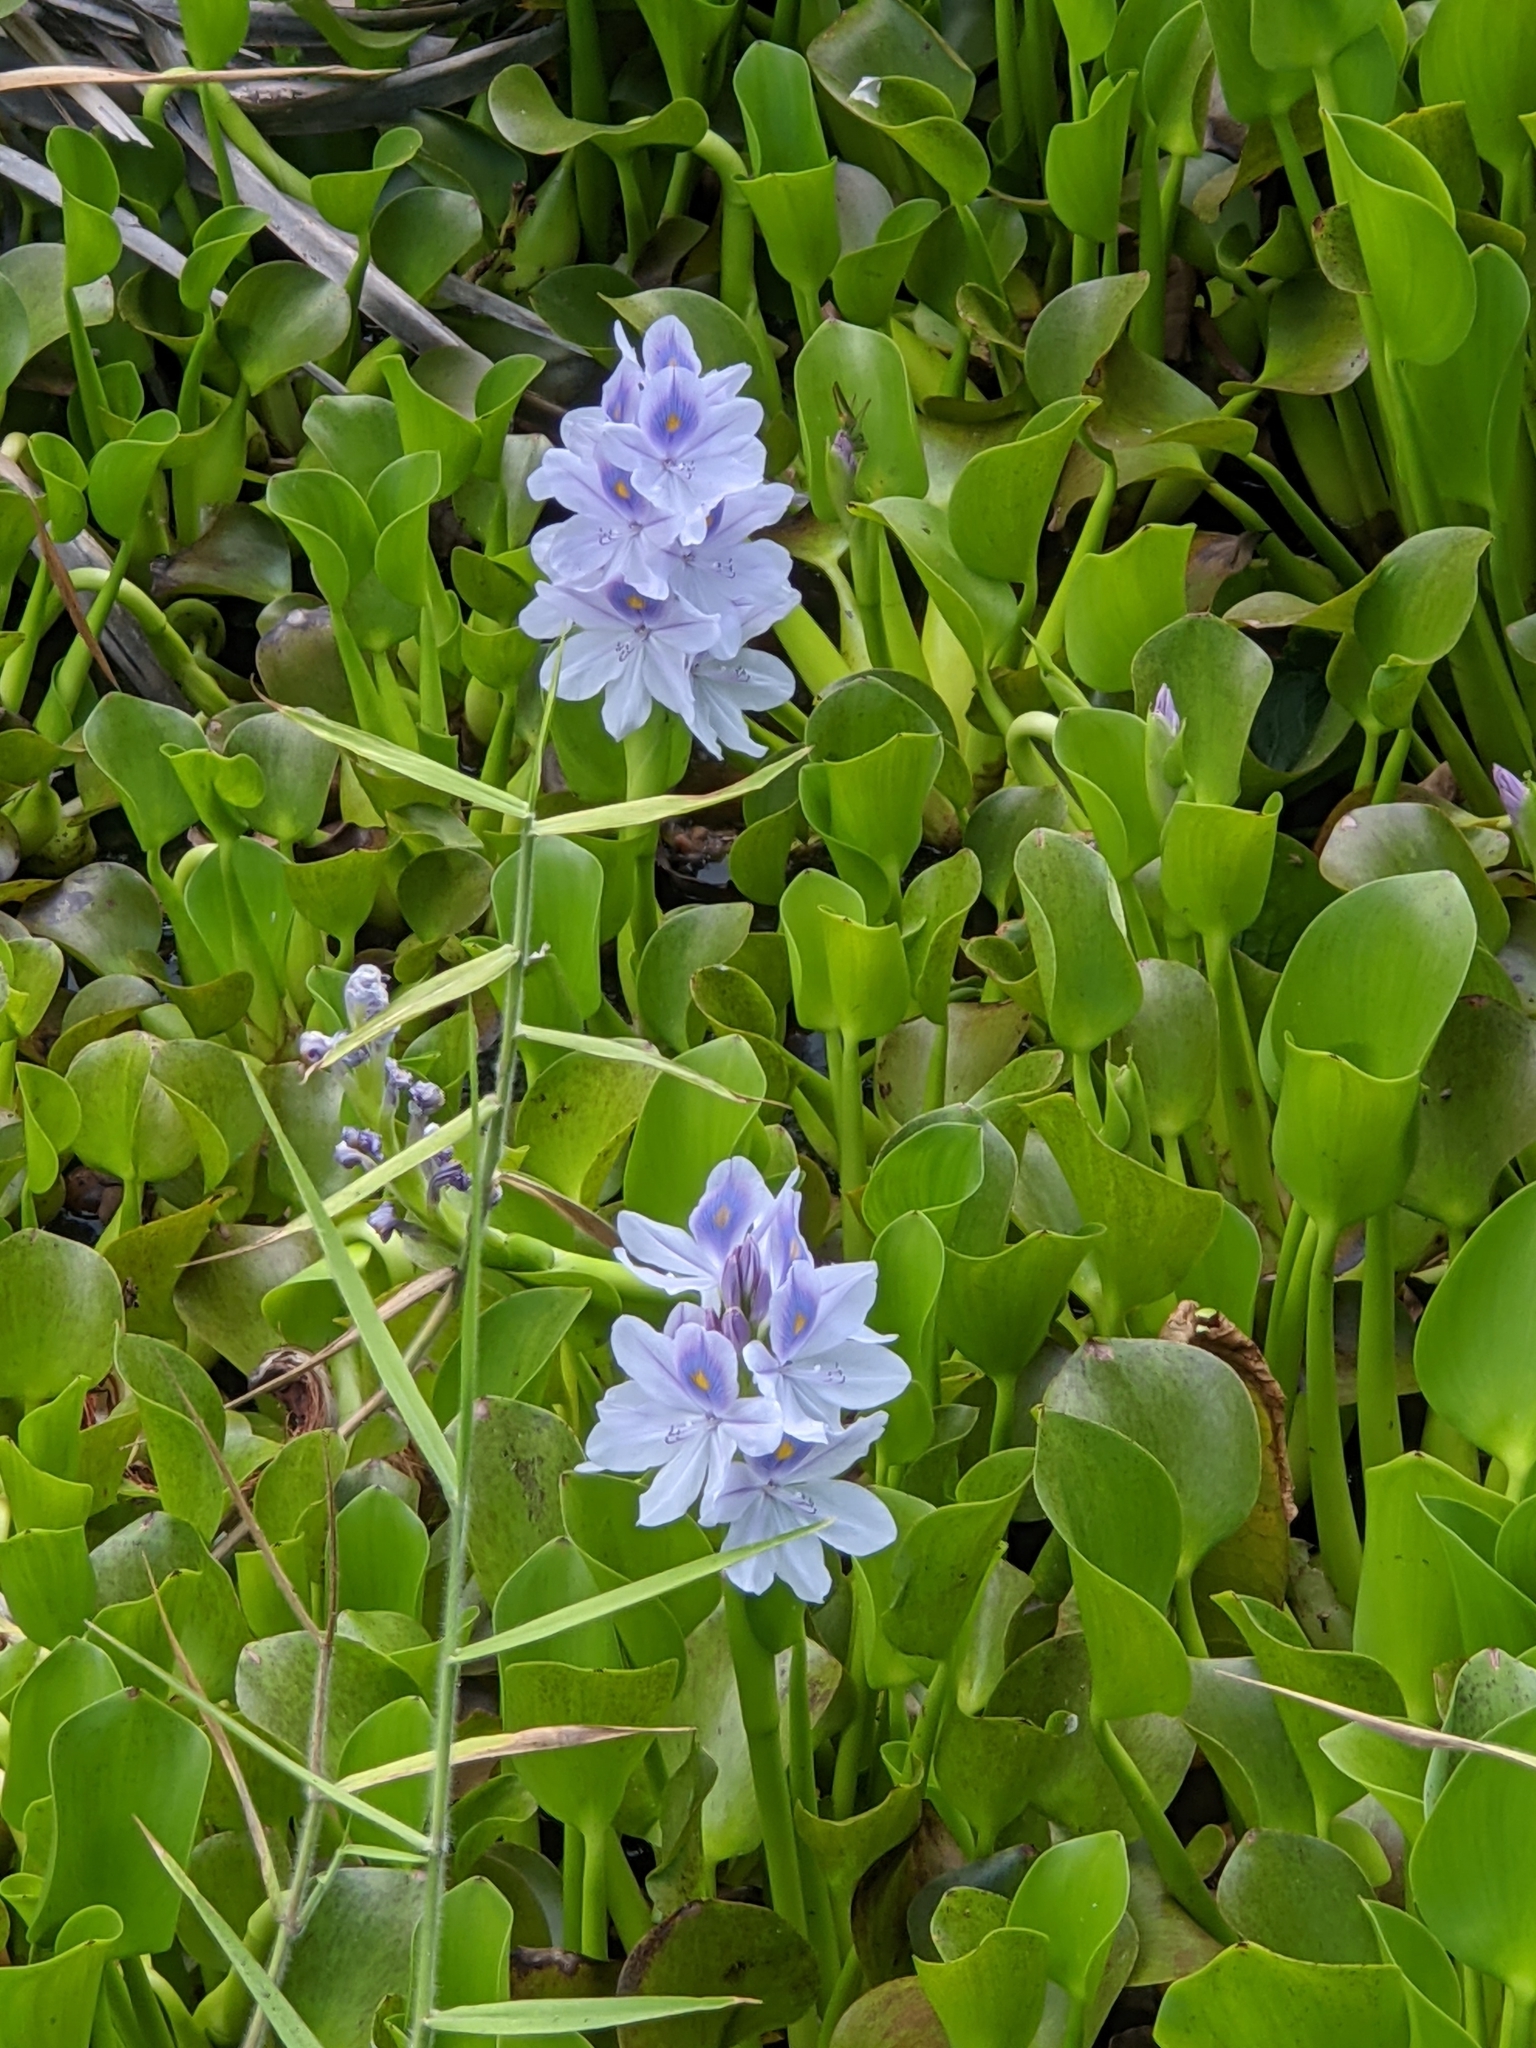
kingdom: Plantae
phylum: Tracheophyta
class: Liliopsida
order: Commelinales
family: Pontederiaceae
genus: Pontederia
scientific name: Pontederia crassipes
